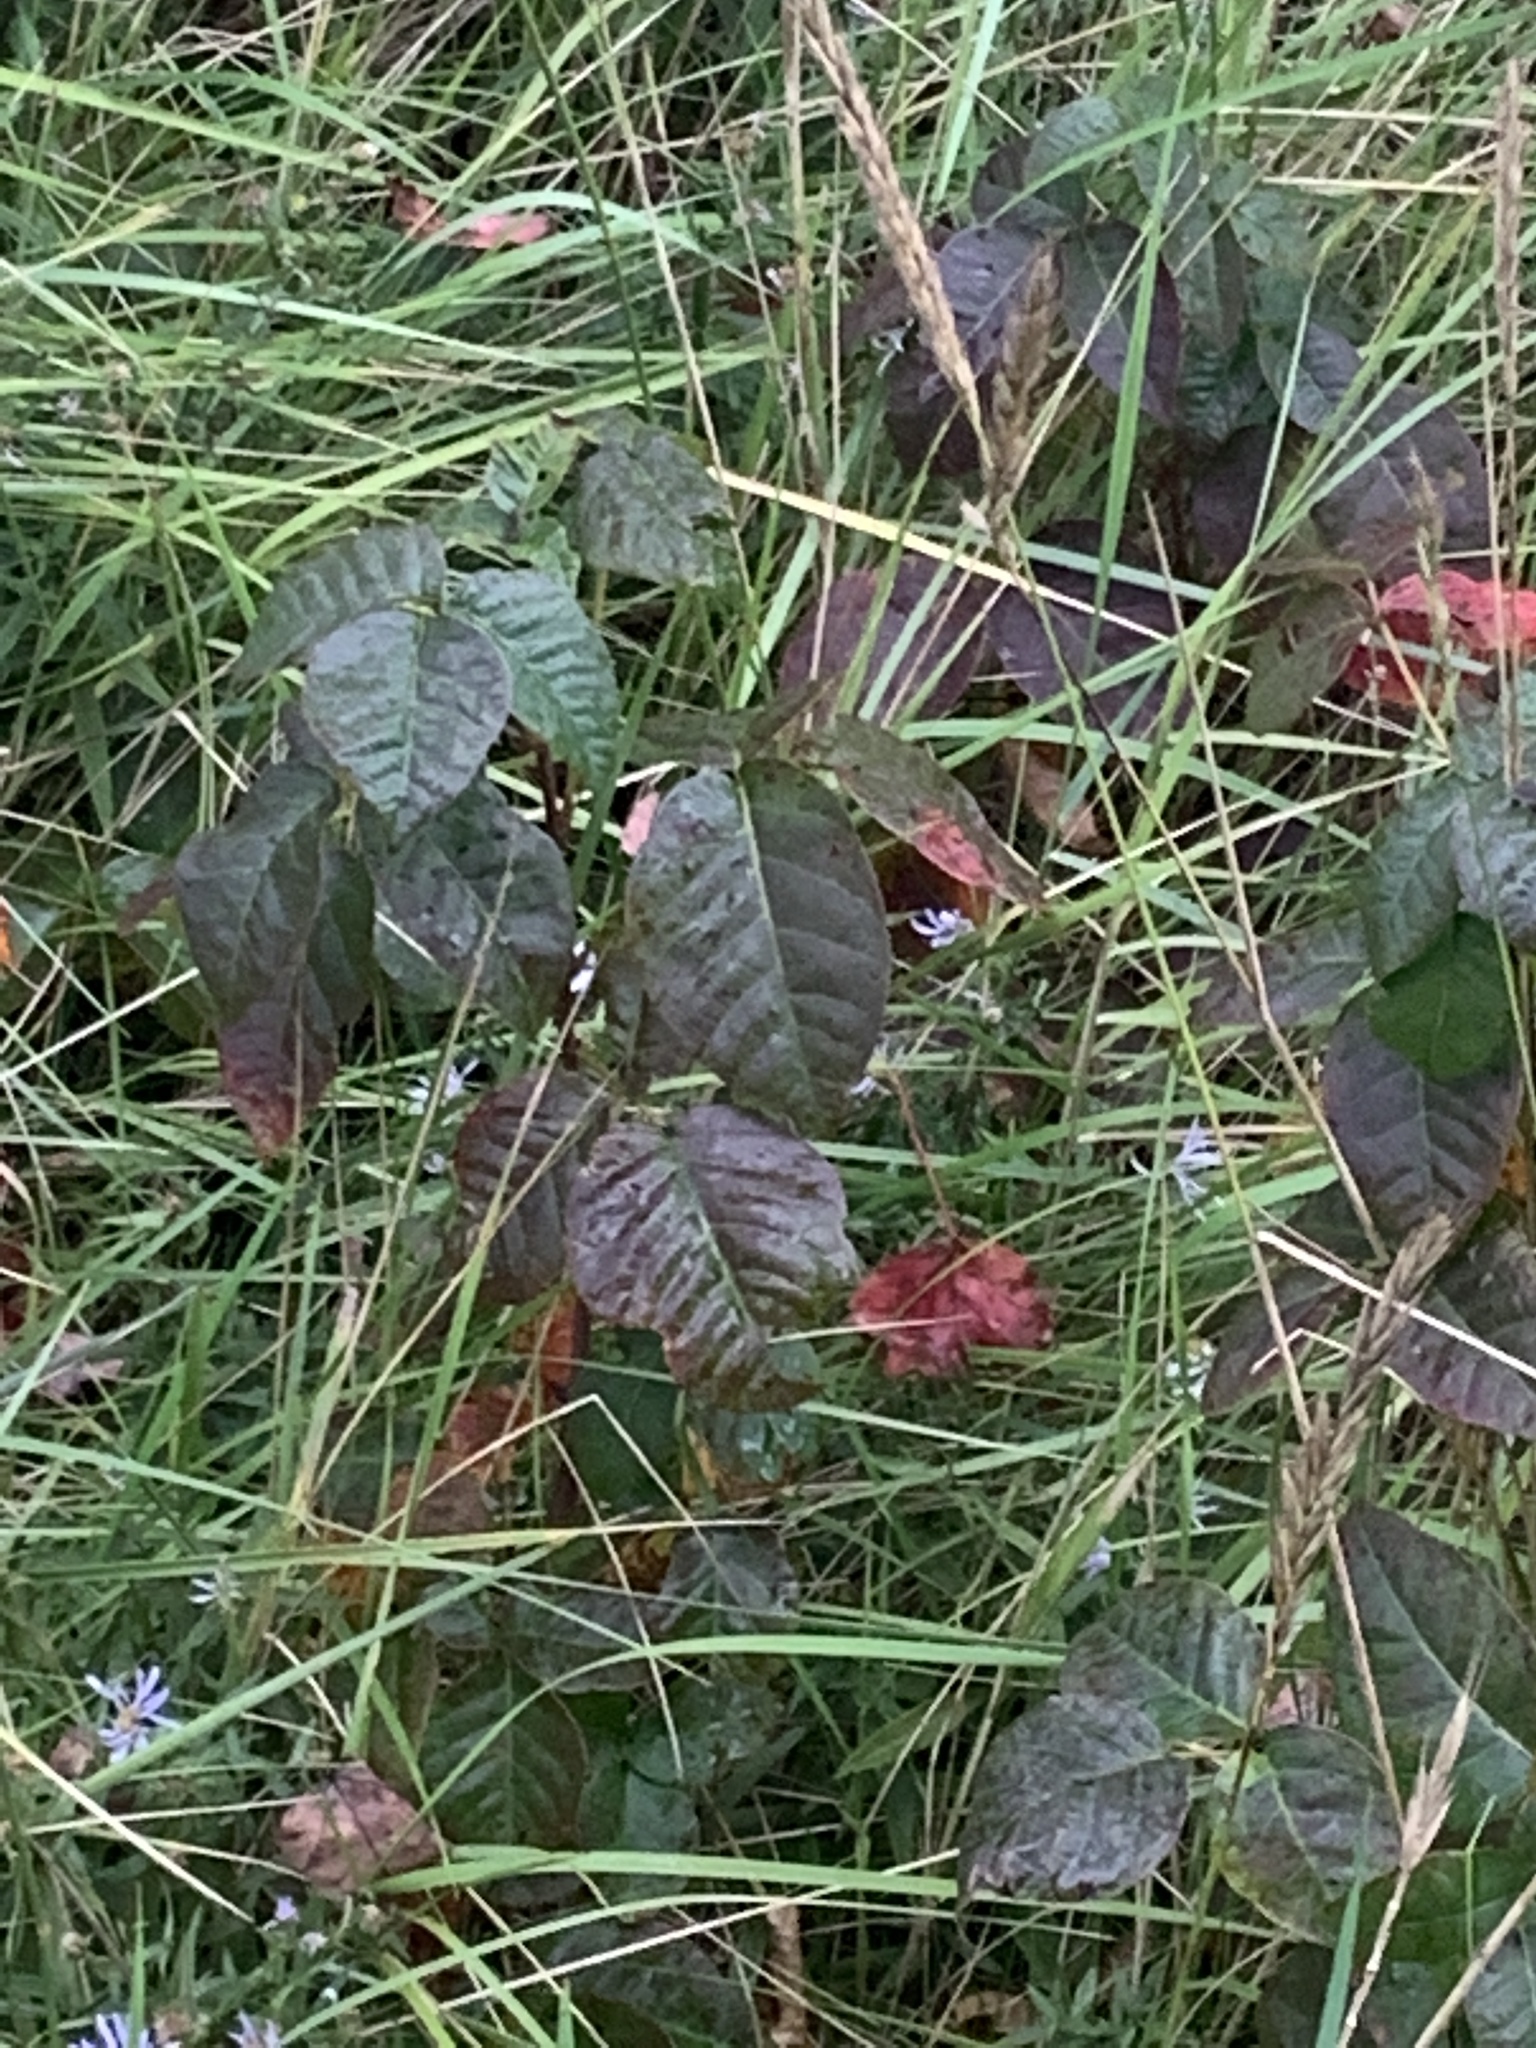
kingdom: Plantae
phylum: Tracheophyta
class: Magnoliopsida
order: Sapindales
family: Anacardiaceae
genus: Toxicodendron
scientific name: Toxicodendron radicans
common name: Poison ivy
